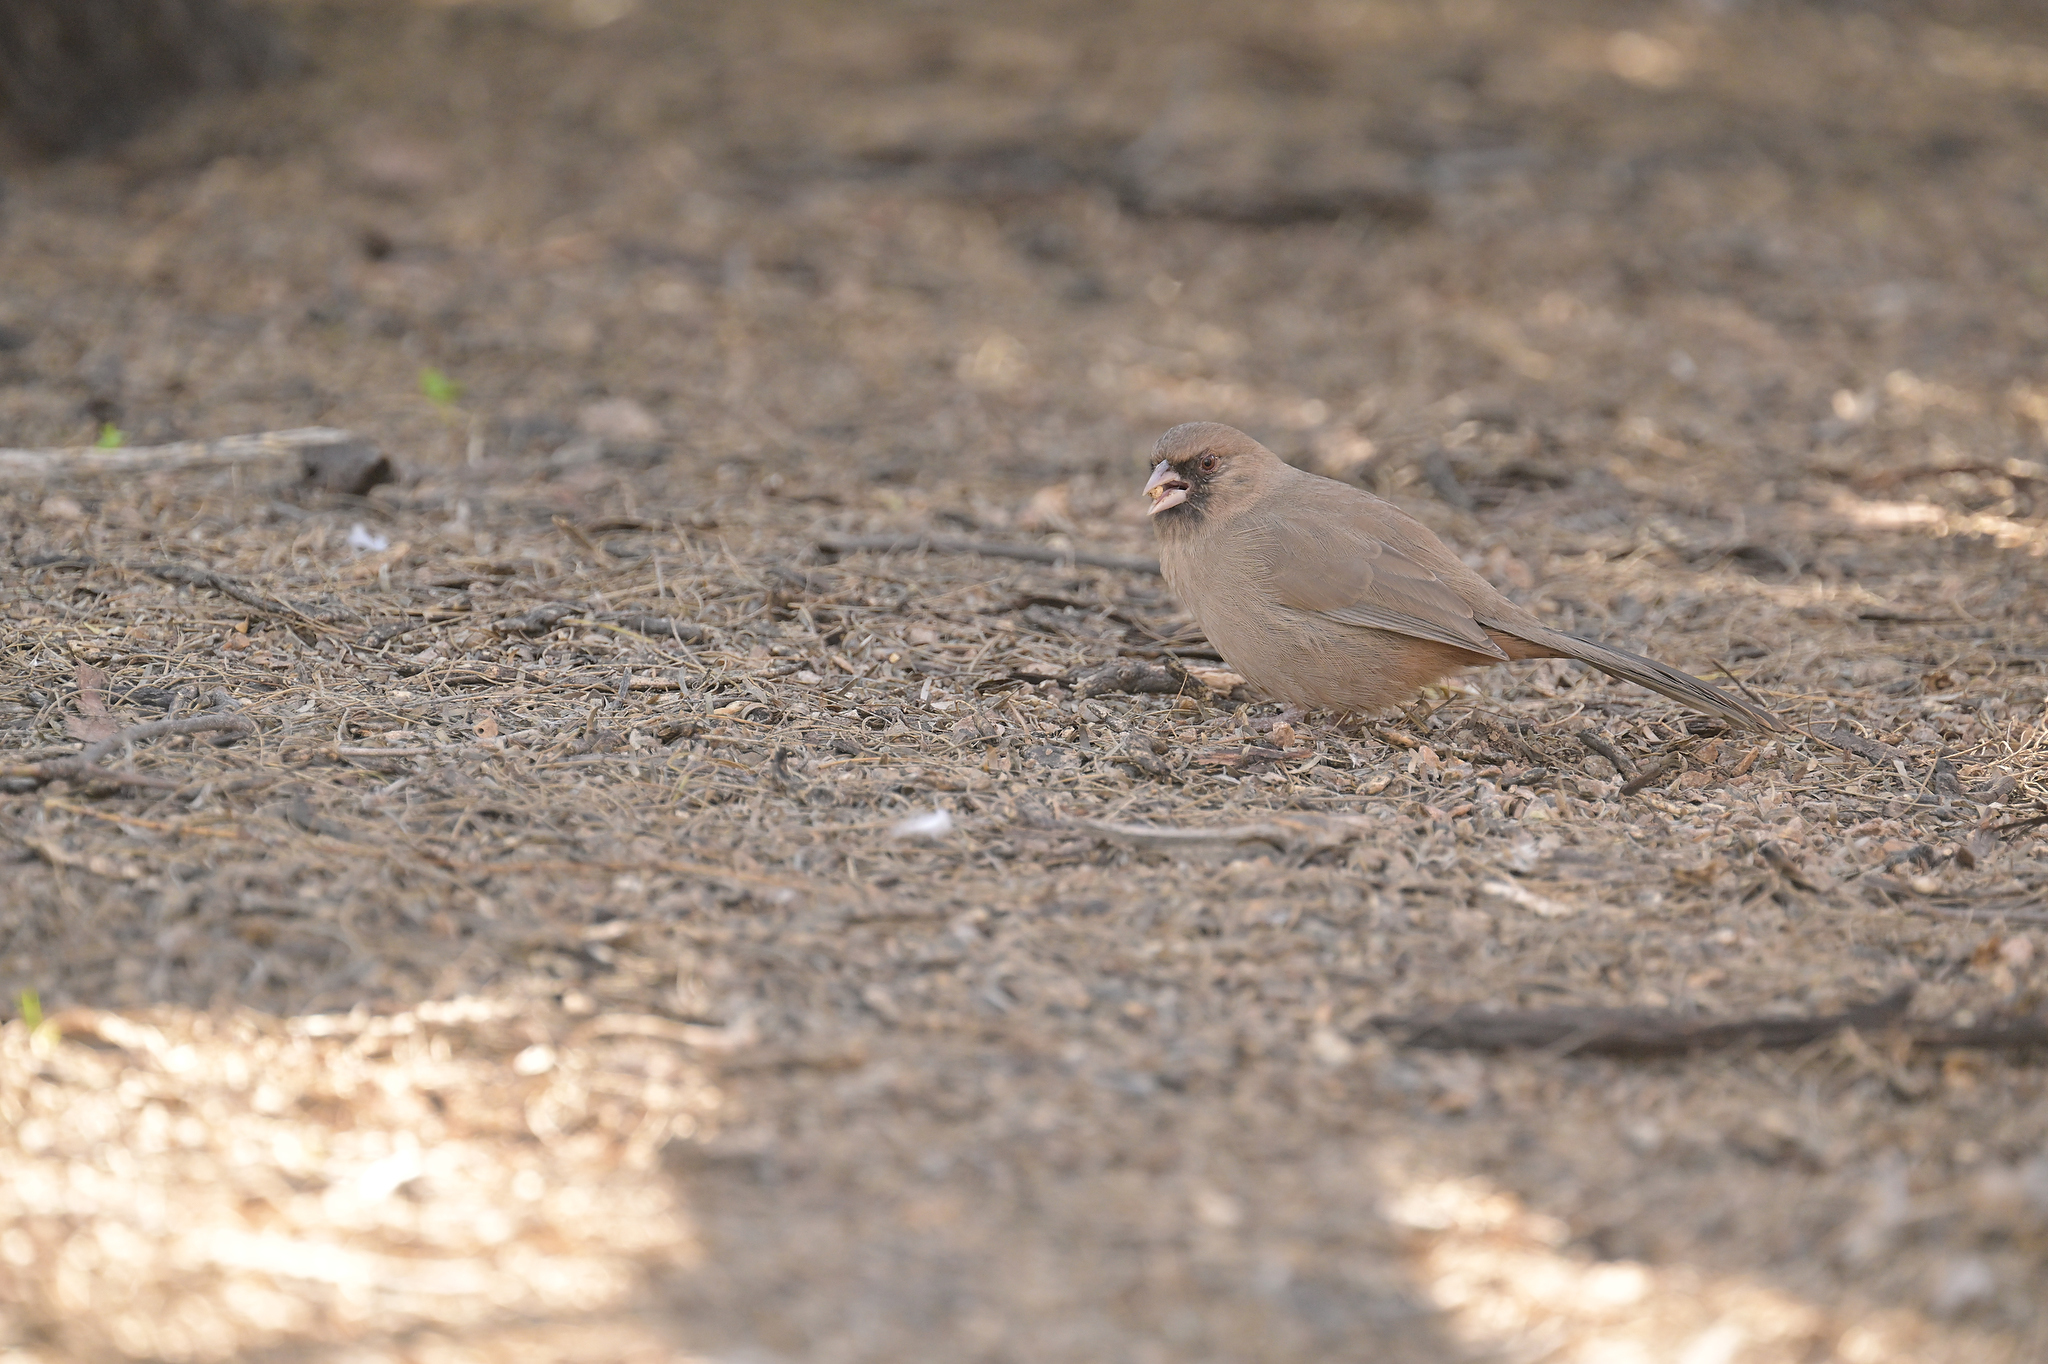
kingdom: Animalia
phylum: Chordata
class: Aves
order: Passeriformes
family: Passerellidae
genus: Melozone
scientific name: Melozone aberti
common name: Abert's towhee
